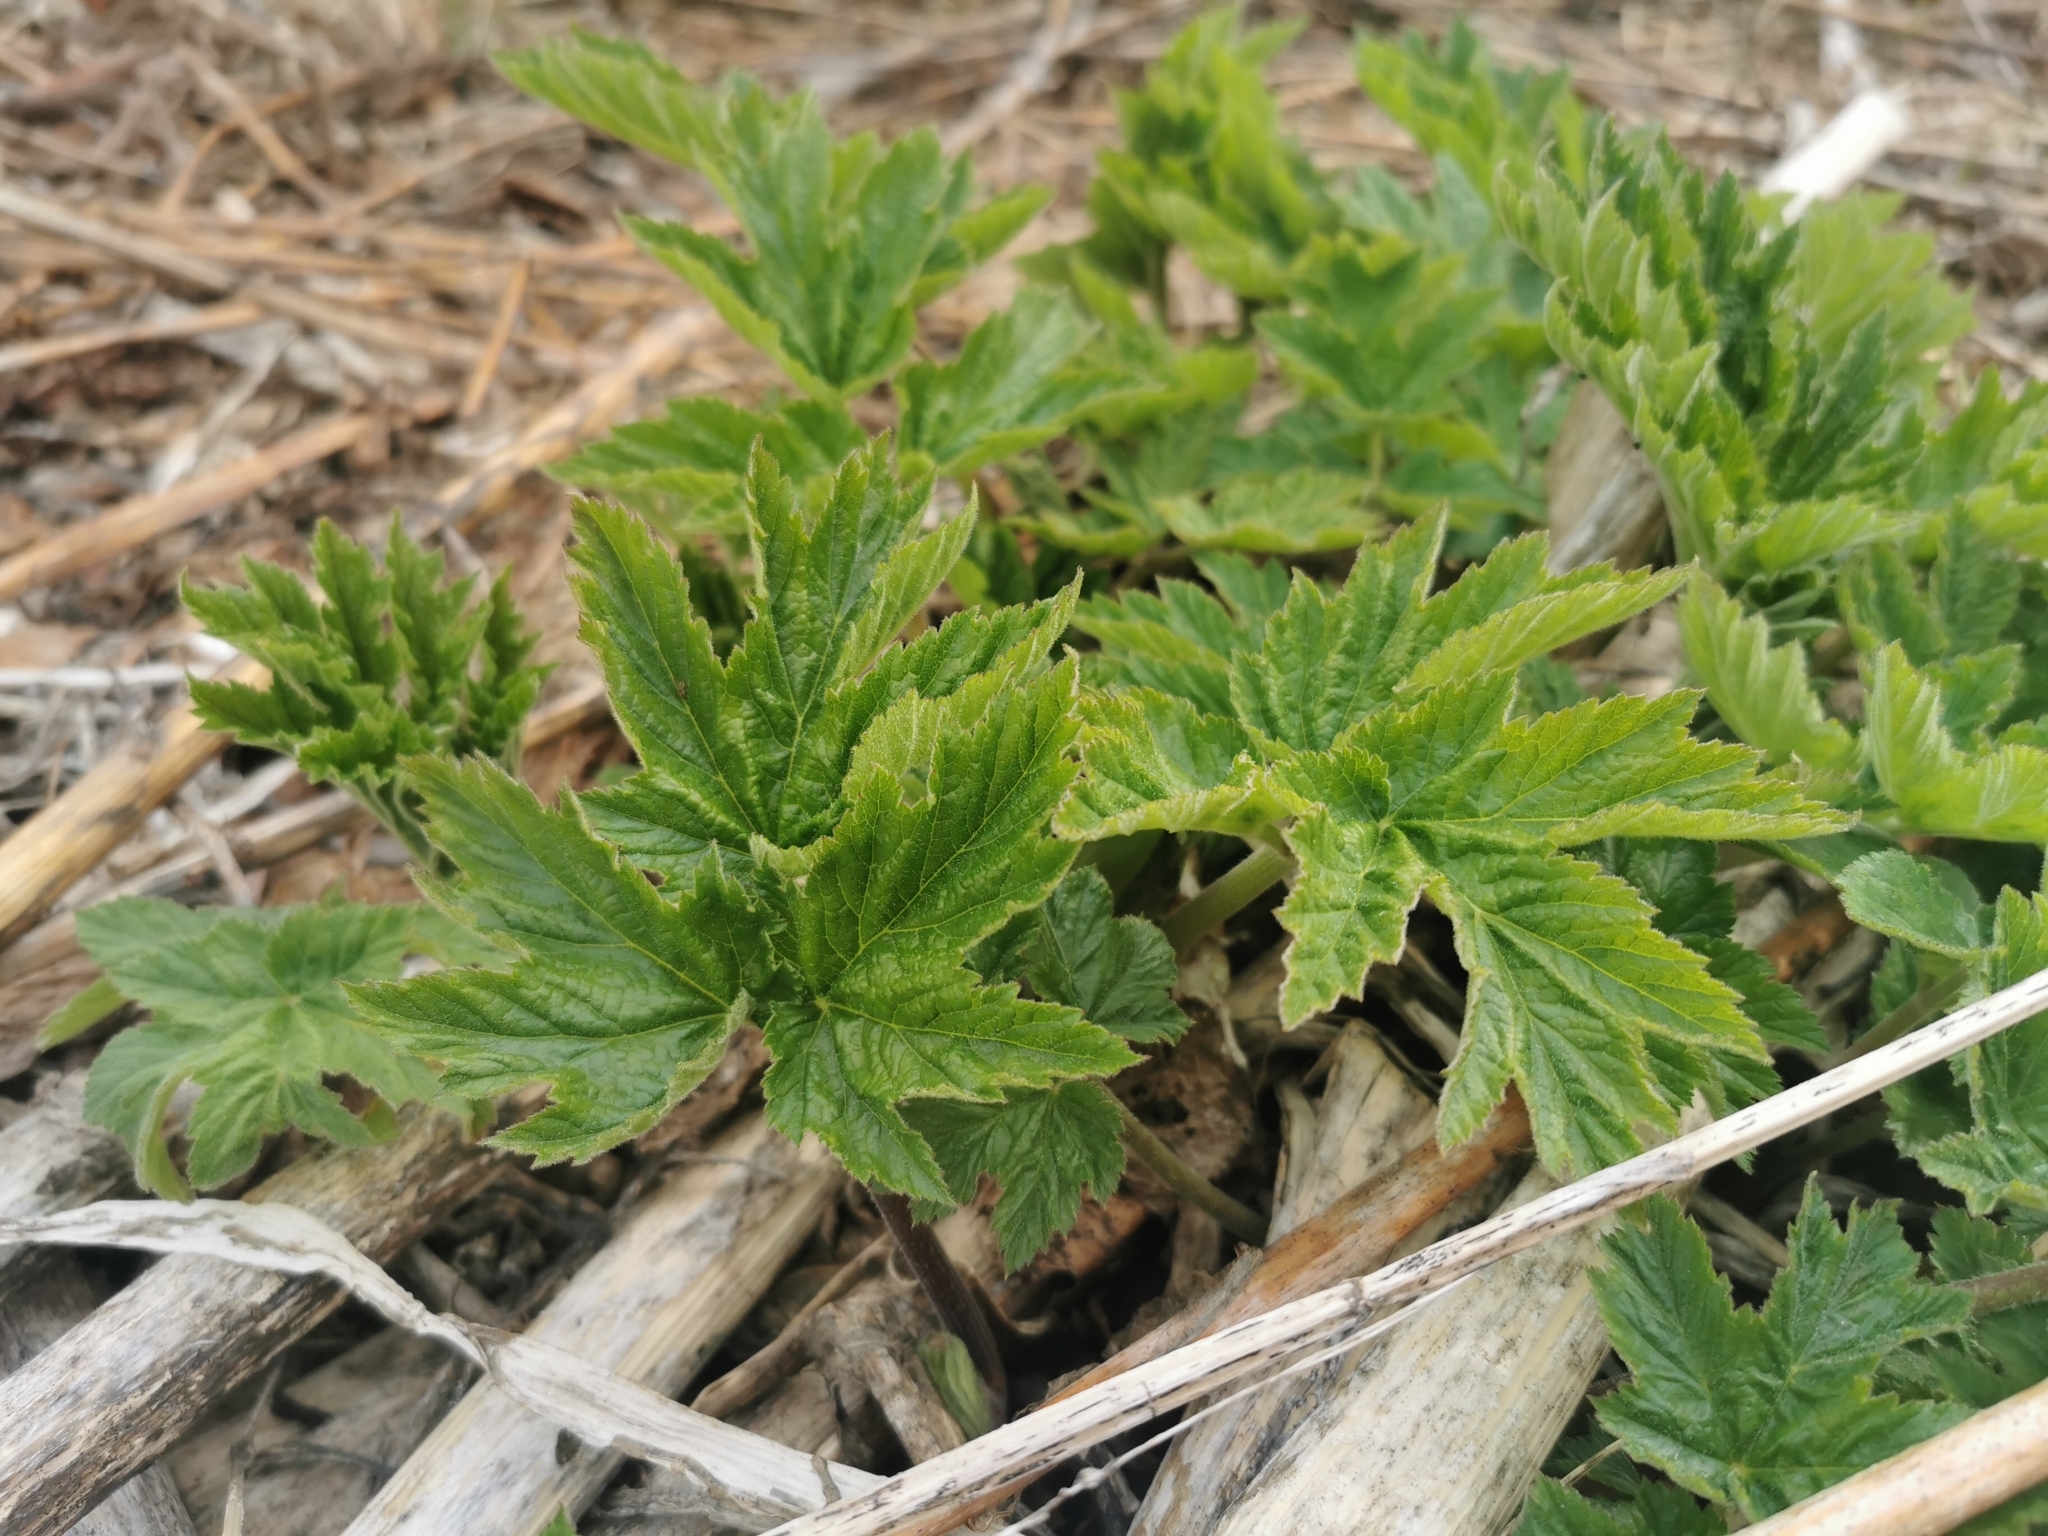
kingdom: Plantae
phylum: Tracheophyta
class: Magnoliopsida
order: Apiales
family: Apiaceae
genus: Heracleum
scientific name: Heracleum maximum
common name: American cow parsnip
